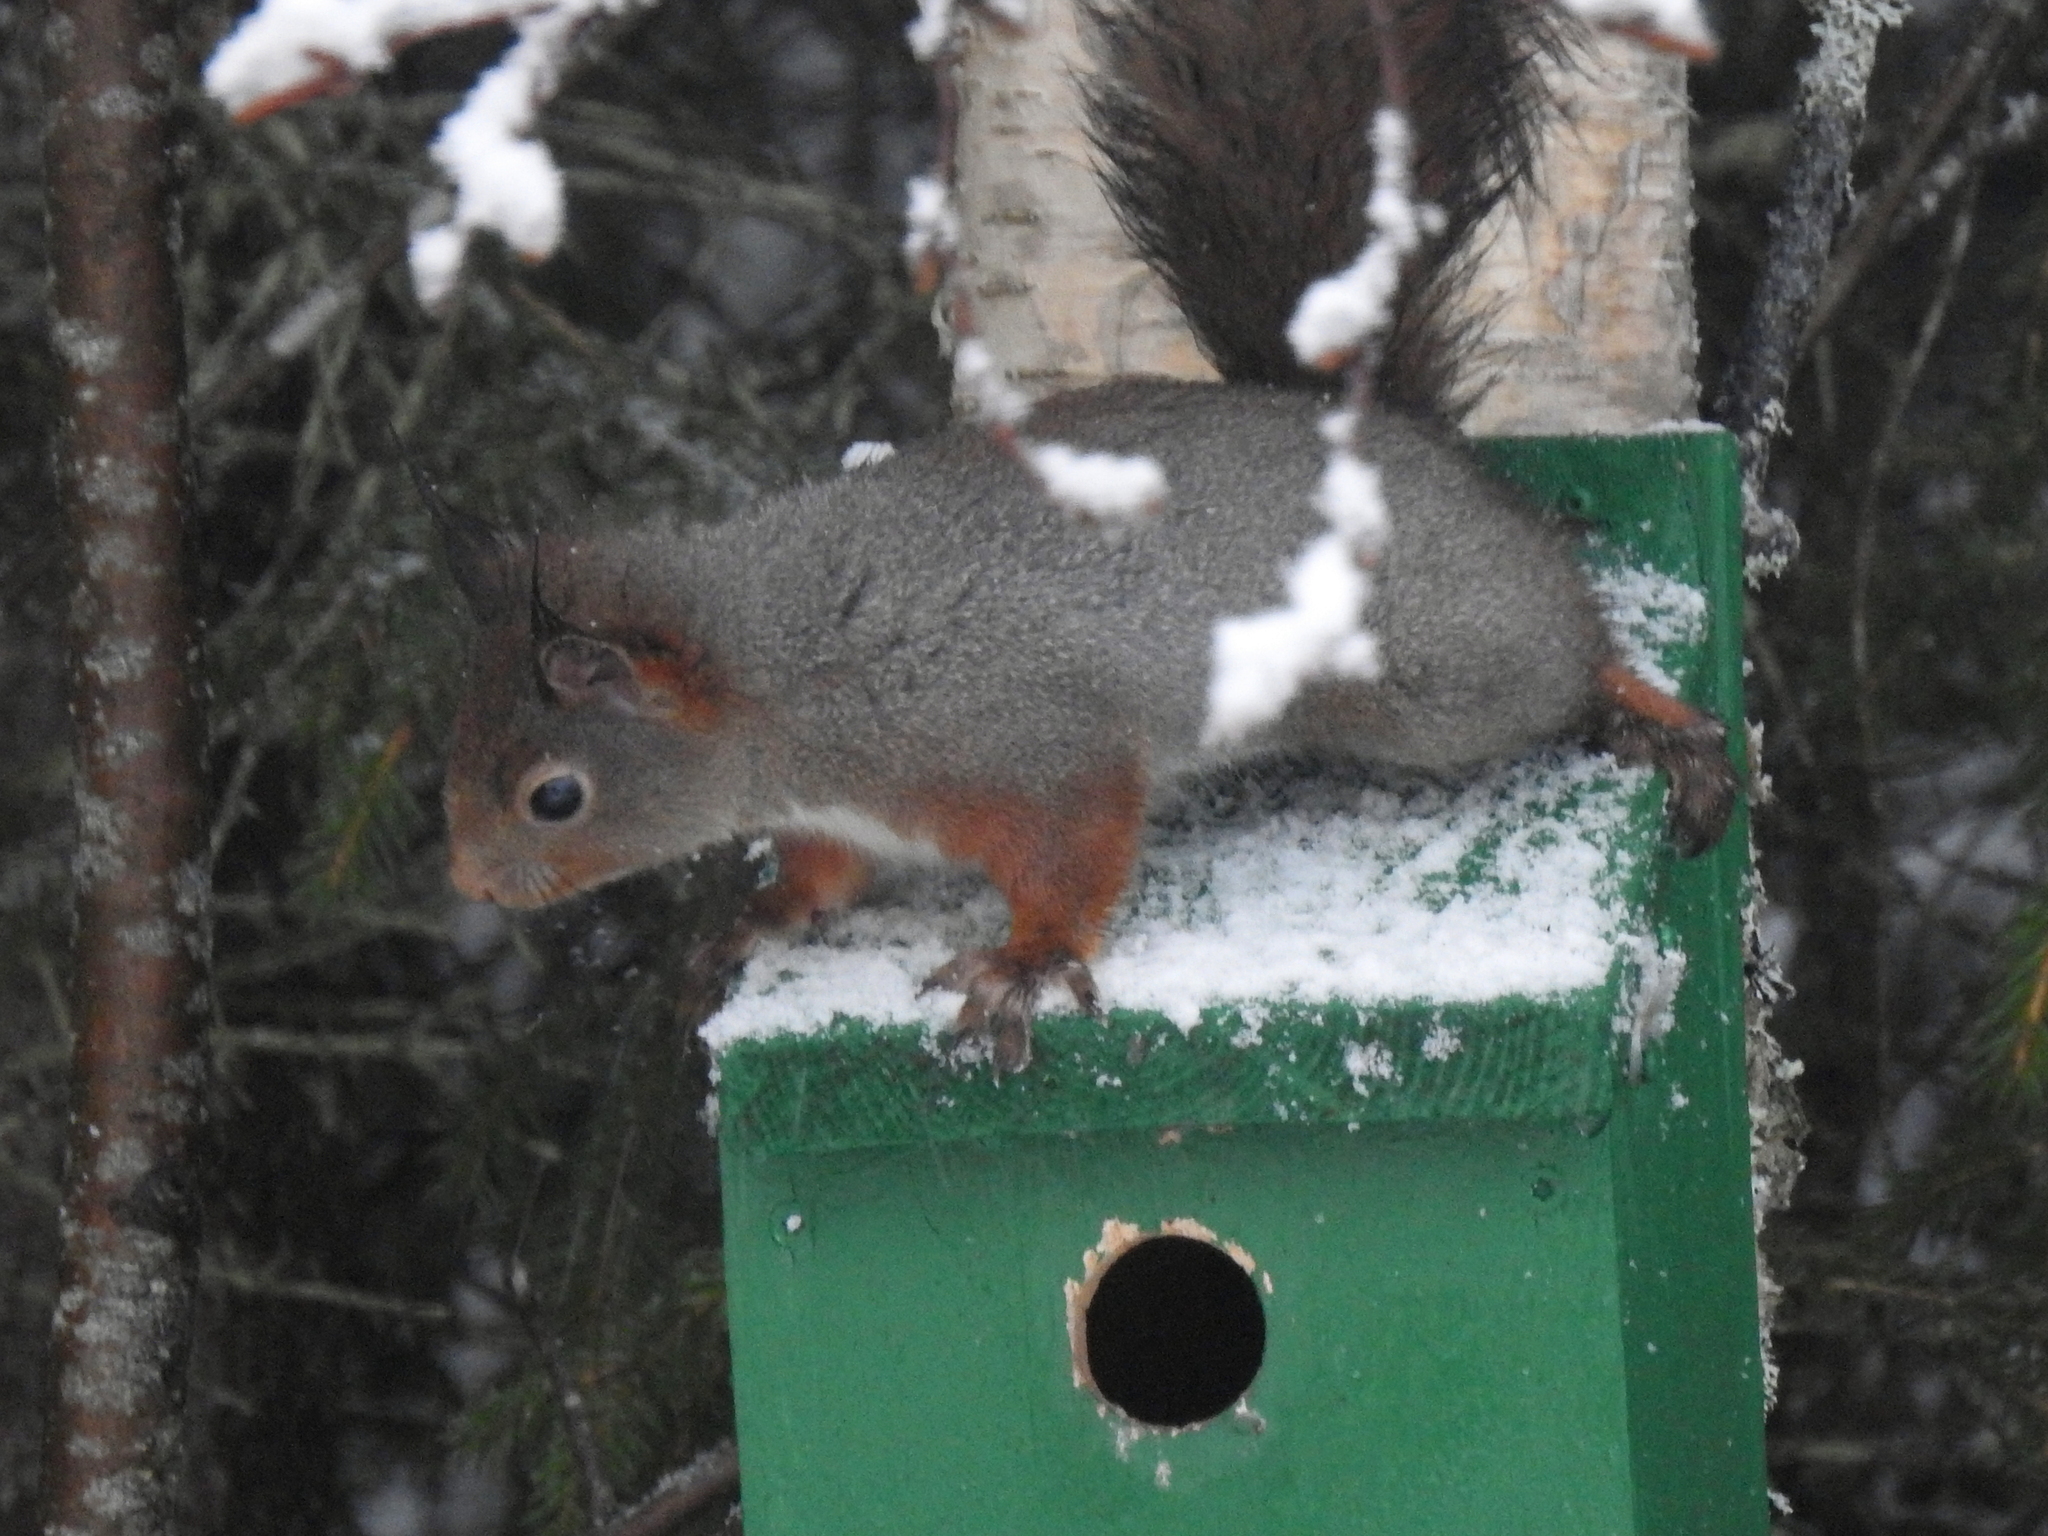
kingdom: Animalia
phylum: Chordata
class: Mammalia
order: Rodentia
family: Sciuridae
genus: Sciurus
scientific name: Sciurus vulgaris
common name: Eurasian red squirrel
